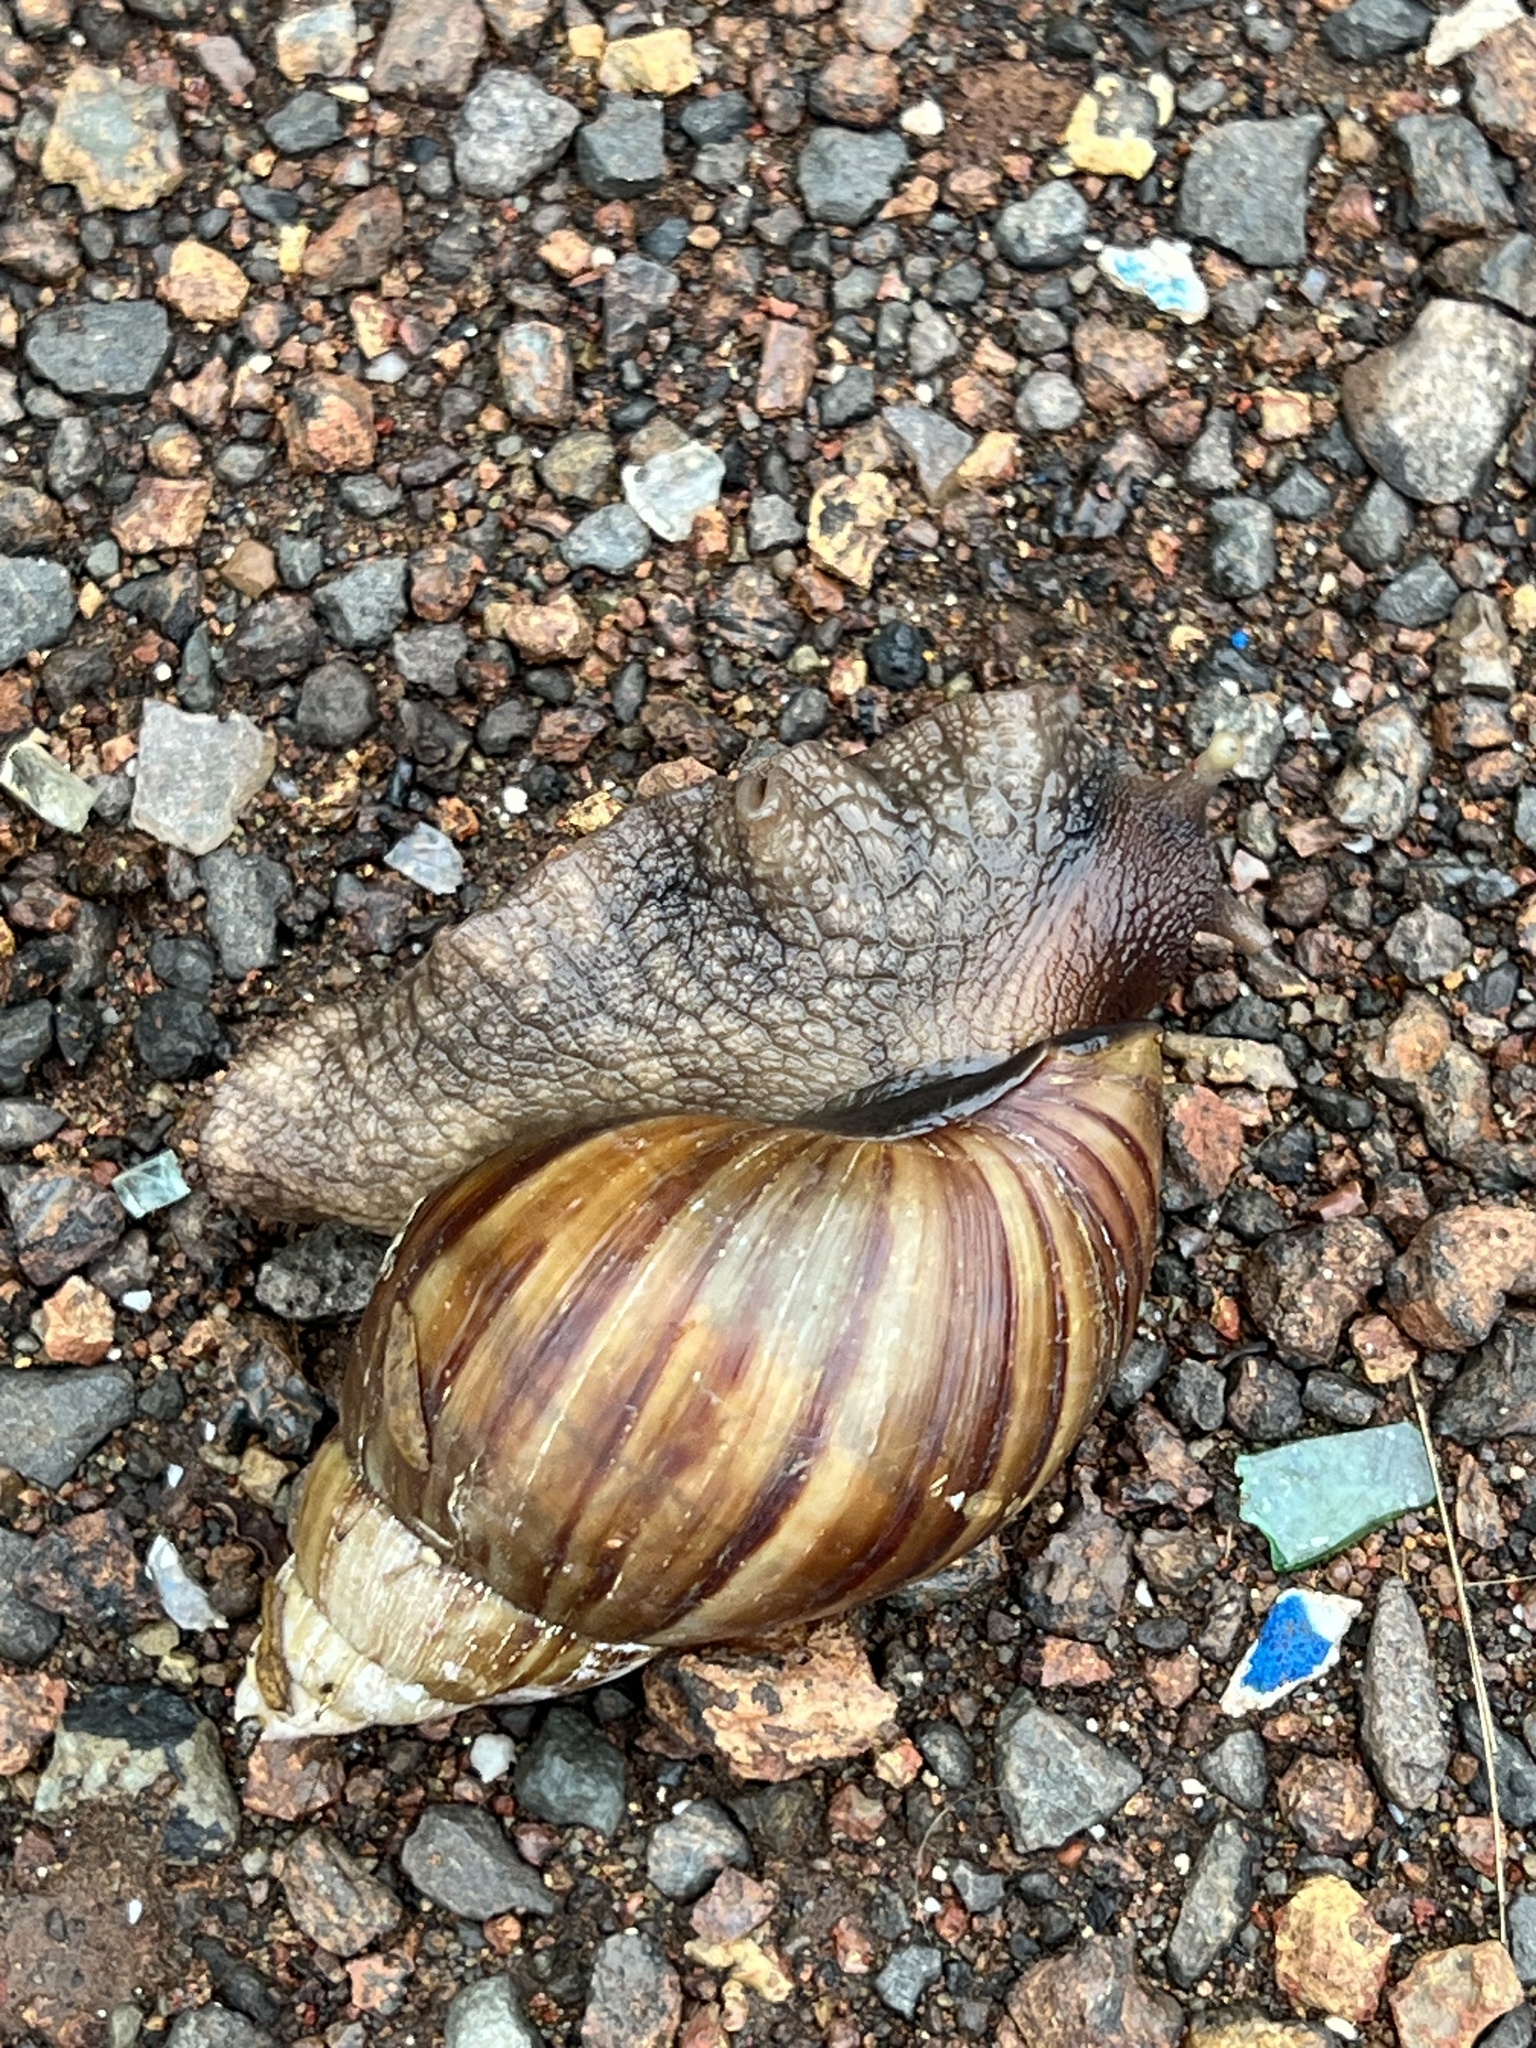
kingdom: Animalia
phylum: Mollusca
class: Gastropoda
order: Stylommatophora
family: Achatinidae
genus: Lissachatina
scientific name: Lissachatina fulica
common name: Giant african snail
